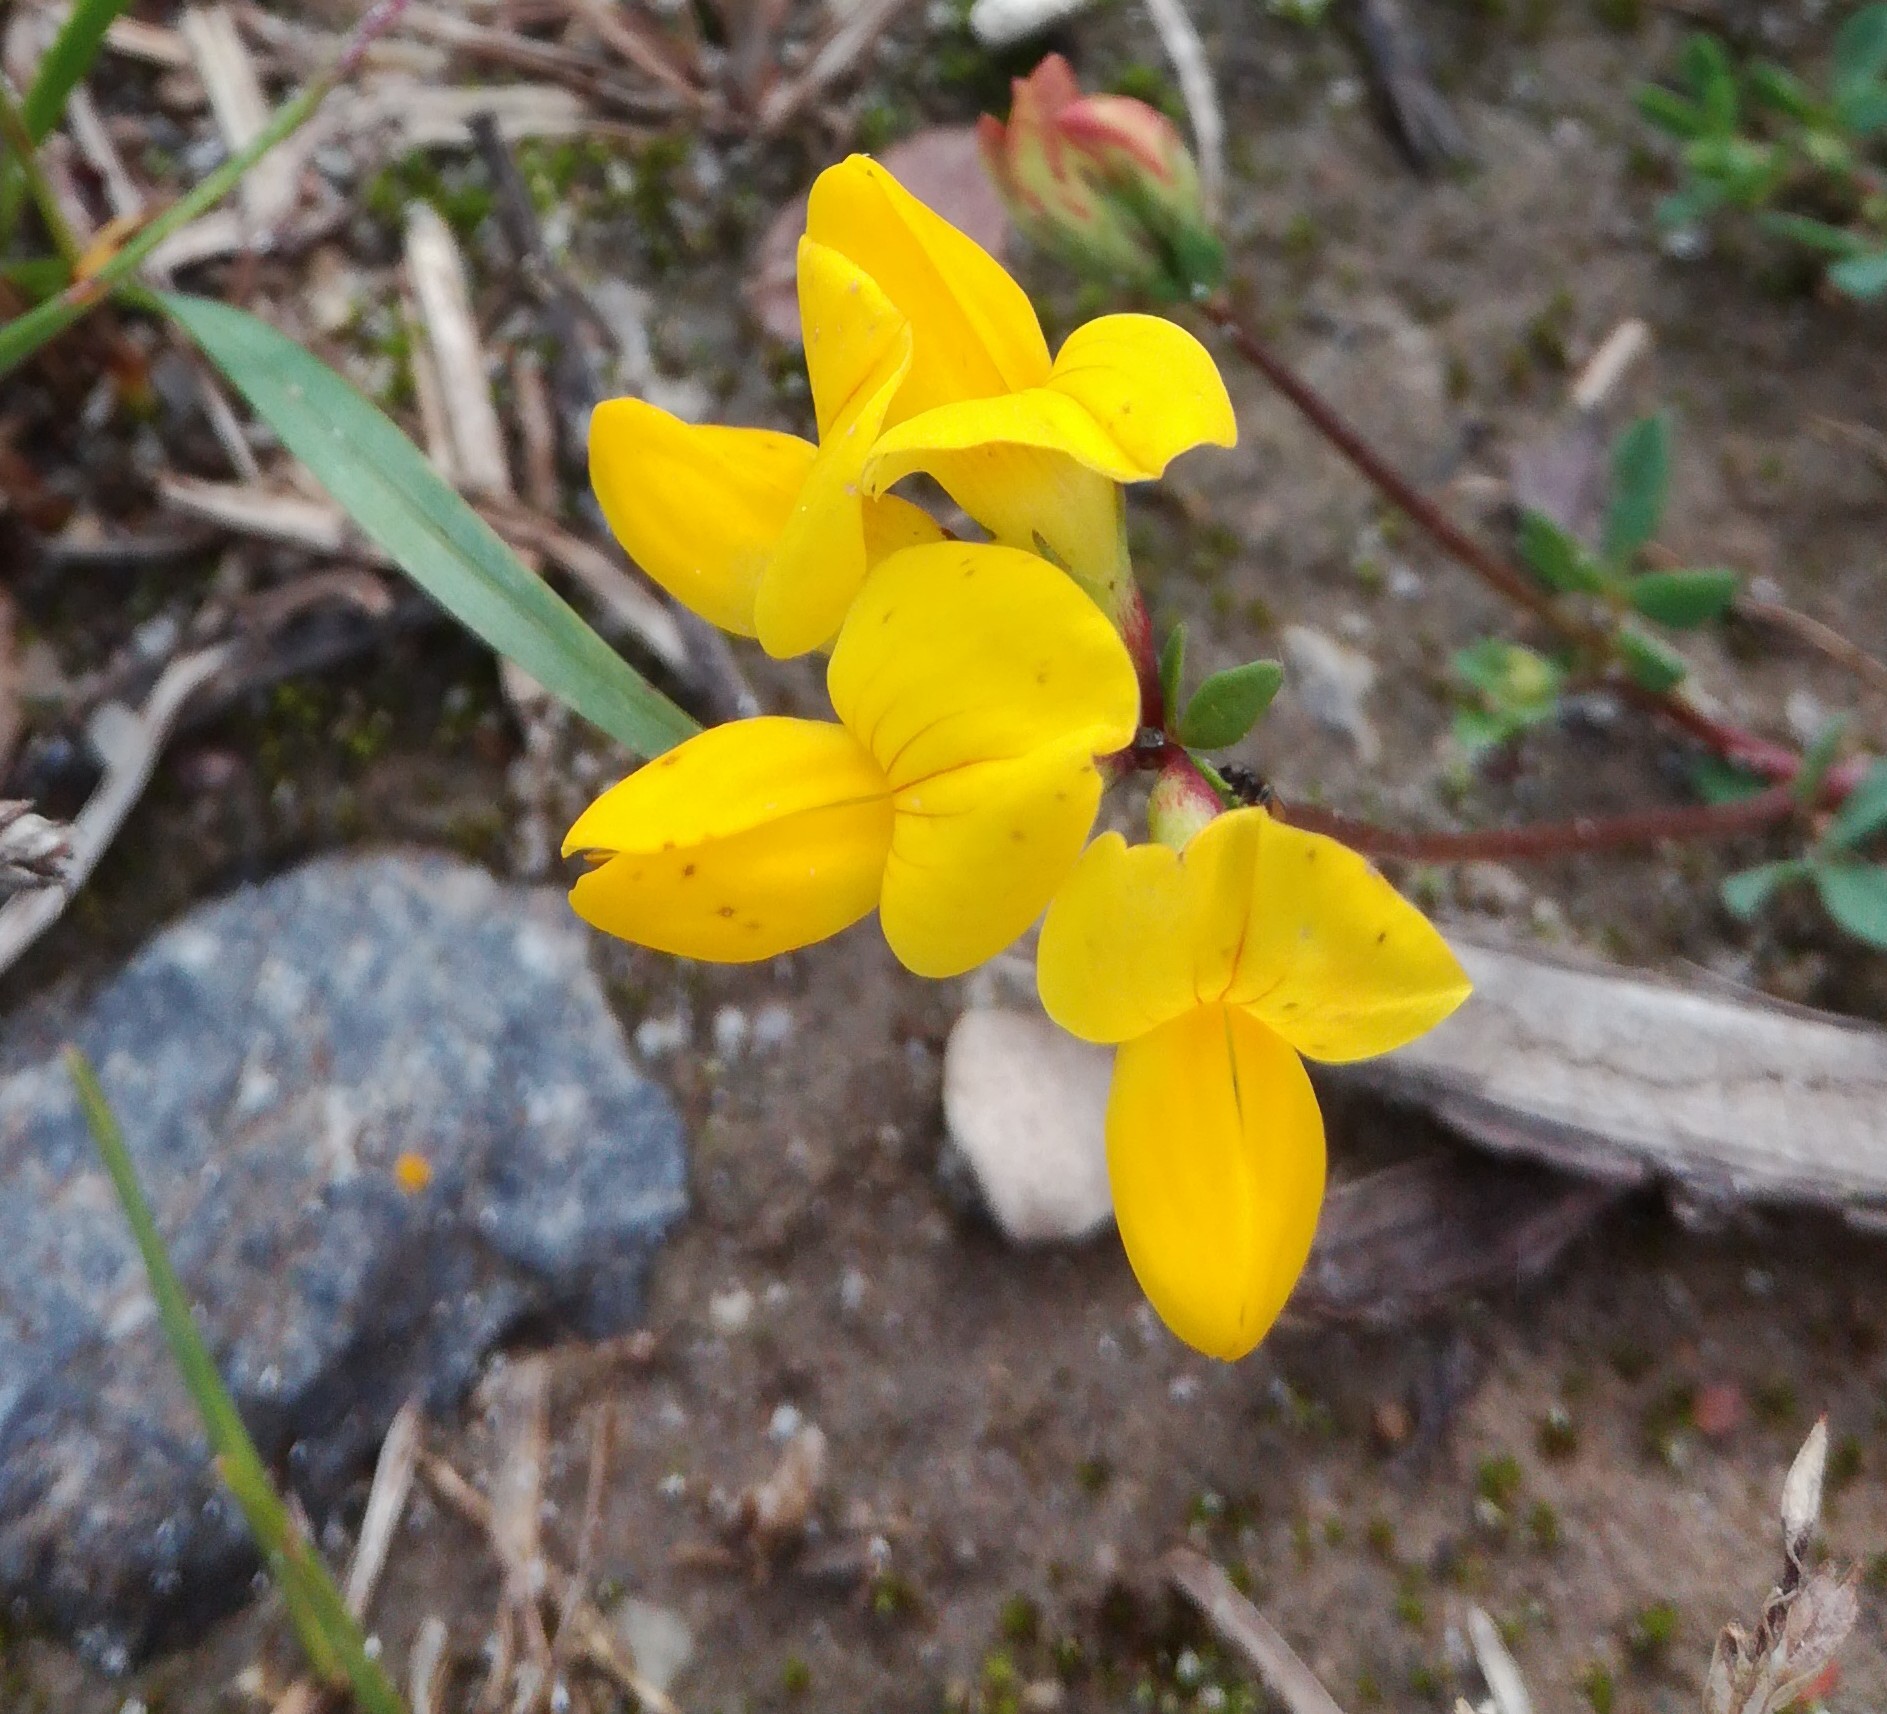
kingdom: Plantae
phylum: Tracheophyta
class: Magnoliopsida
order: Fabales
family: Fabaceae
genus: Lotus
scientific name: Lotus corniculatus
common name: Common bird's-foot-trefoil
